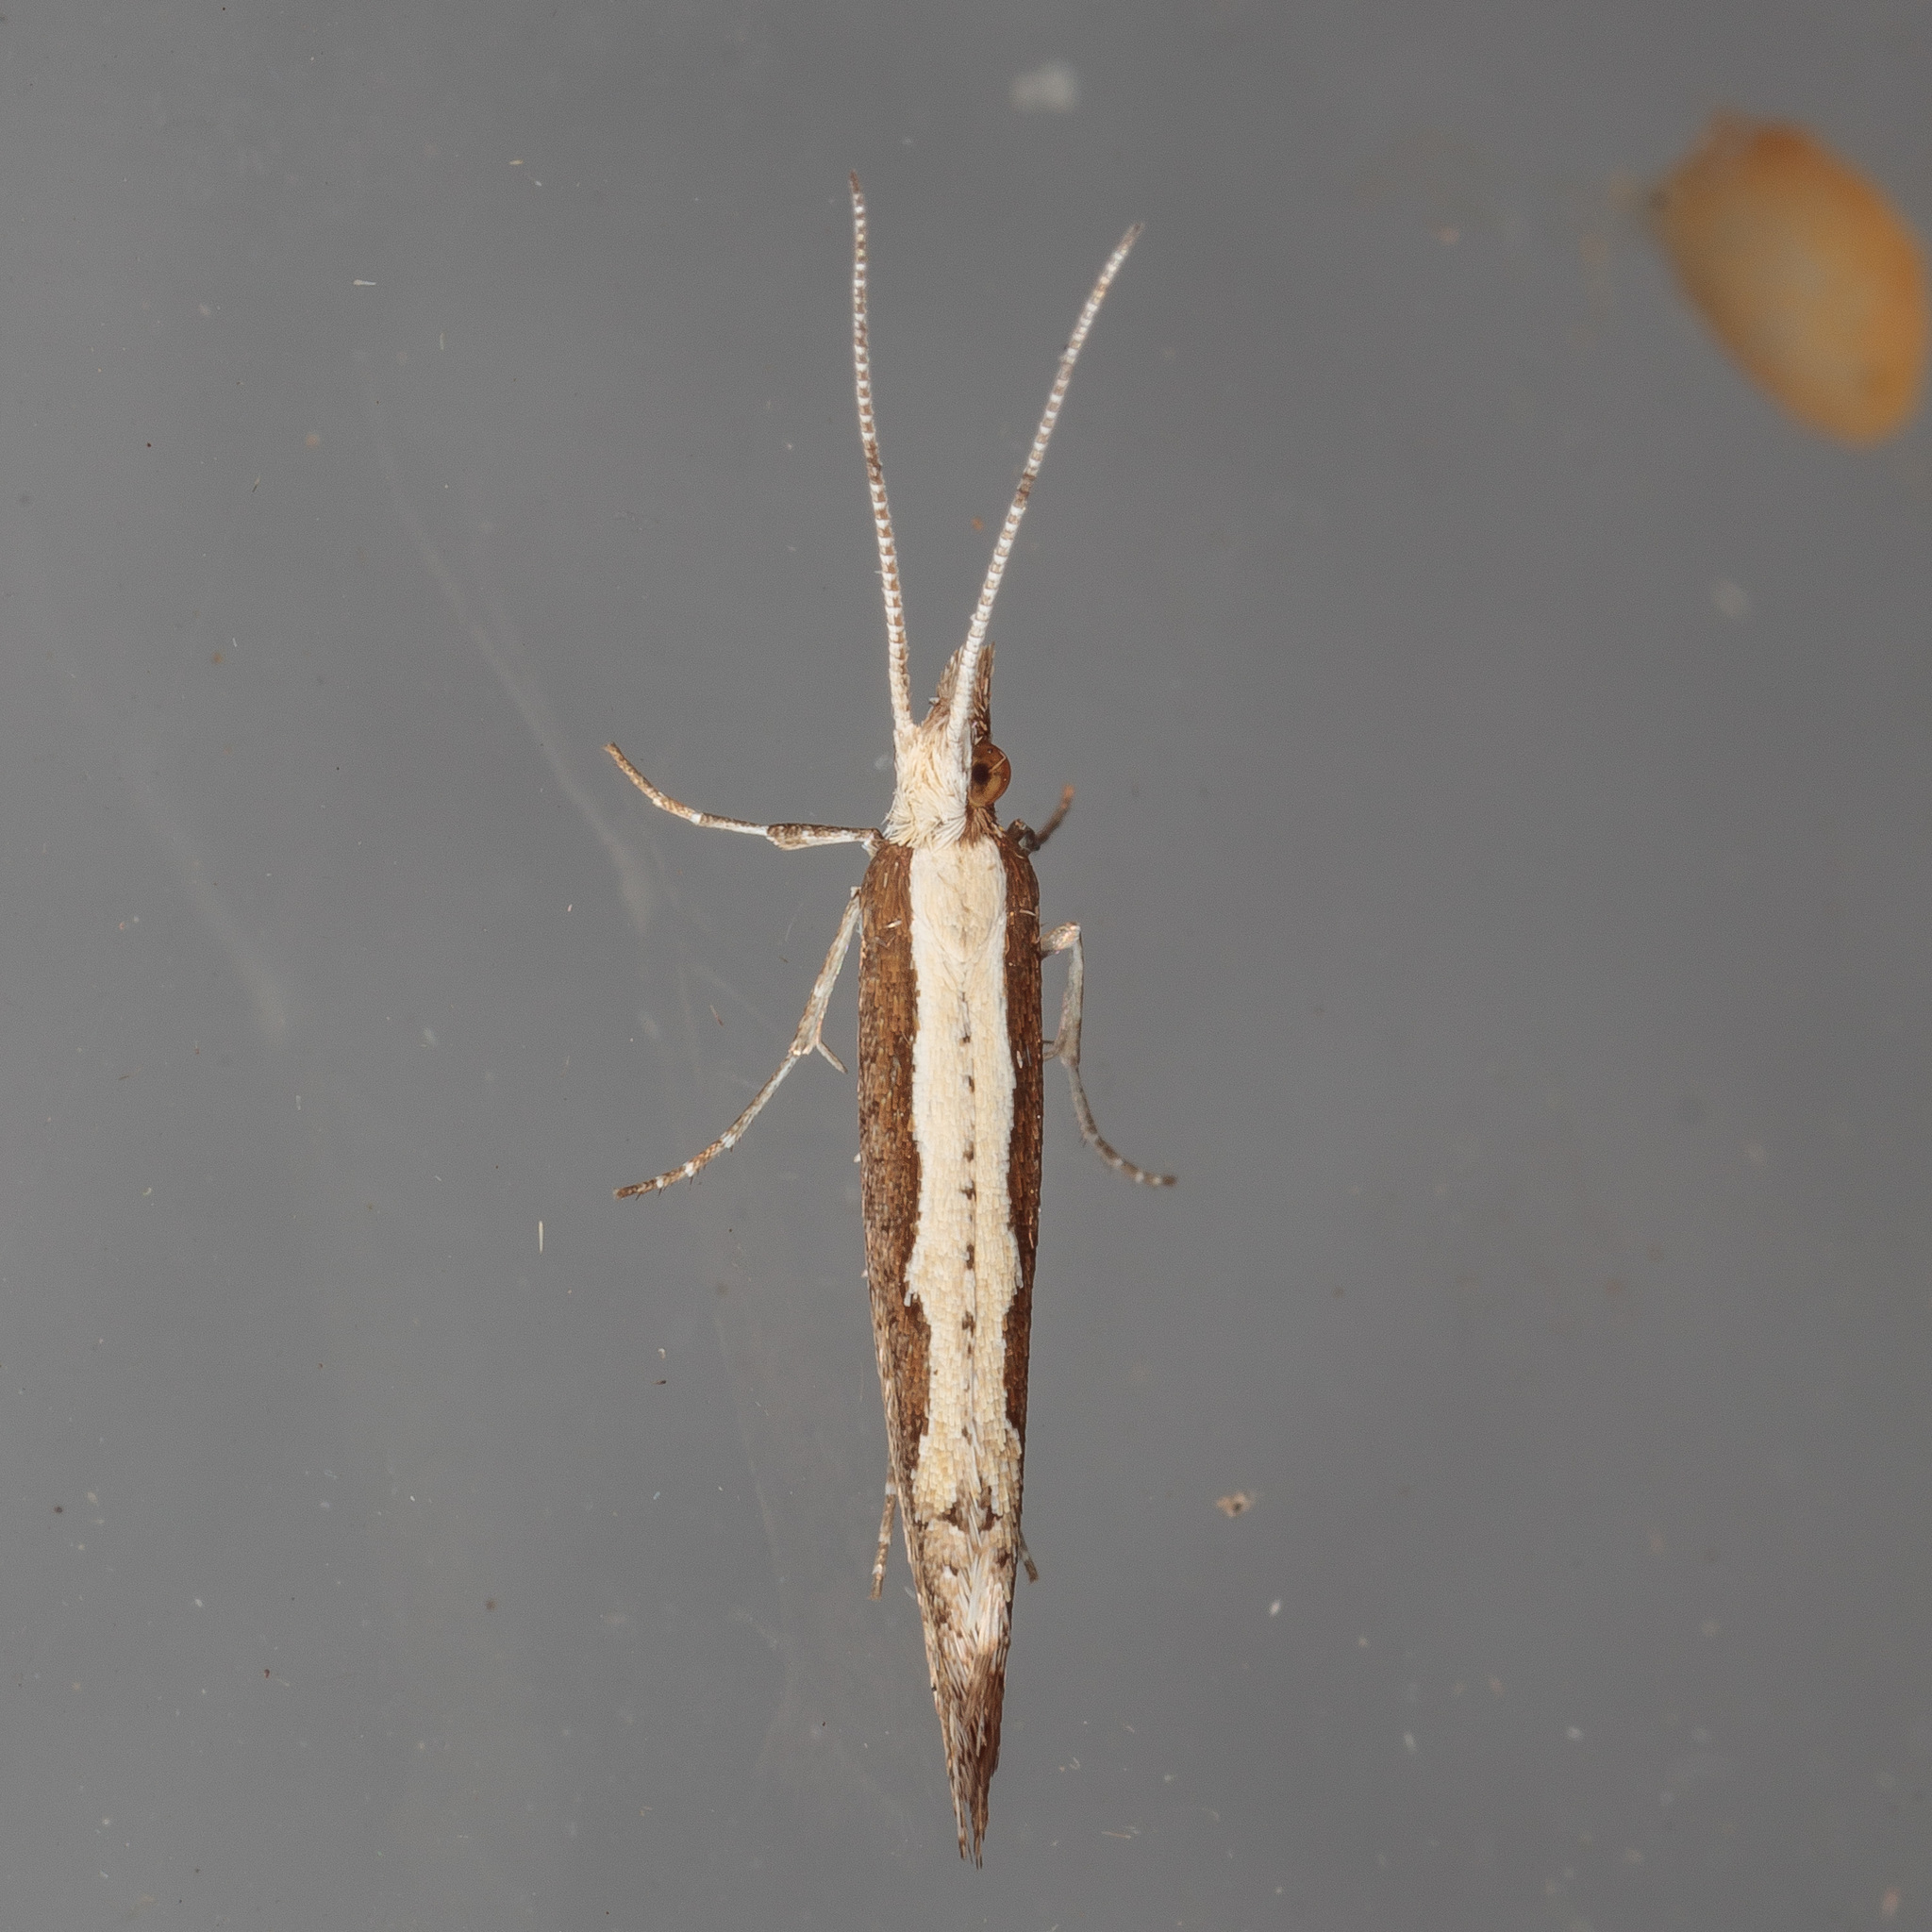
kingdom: Animalia
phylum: Arthropoda
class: Insecta
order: Lepidoptera
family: Plutellidae
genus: Plutella
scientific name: Plutella xylostella
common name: Diamond-back moth
